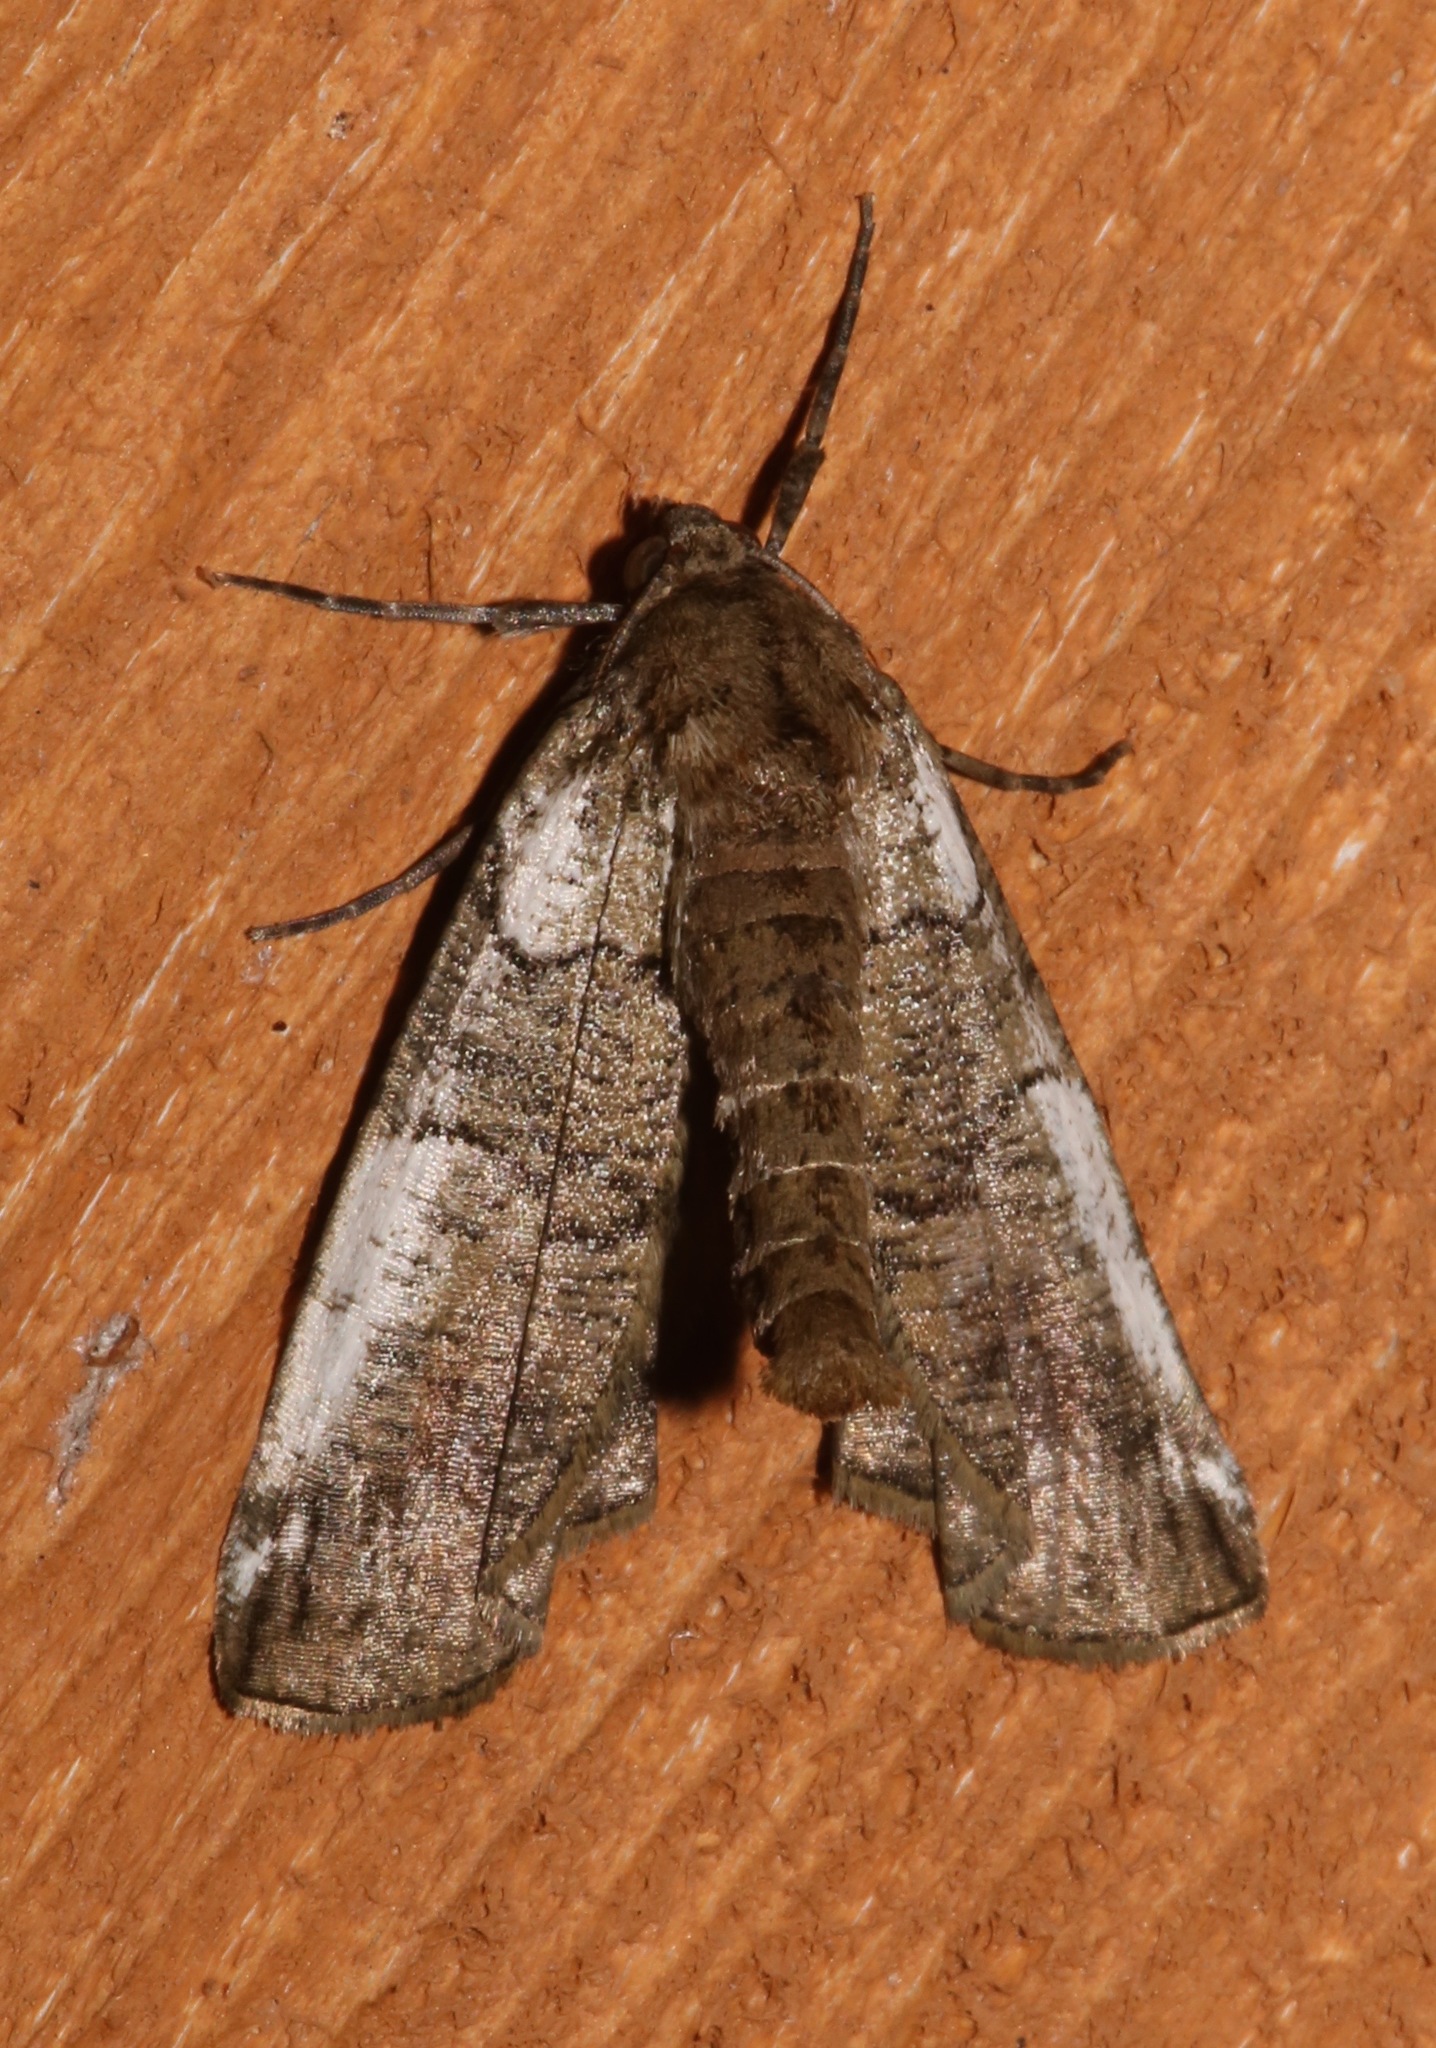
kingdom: Animalia
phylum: Arthropoda
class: Insecta
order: Lepidoptera
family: Geometridae
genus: Ceratonyx
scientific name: Ceratonyx satanaria
